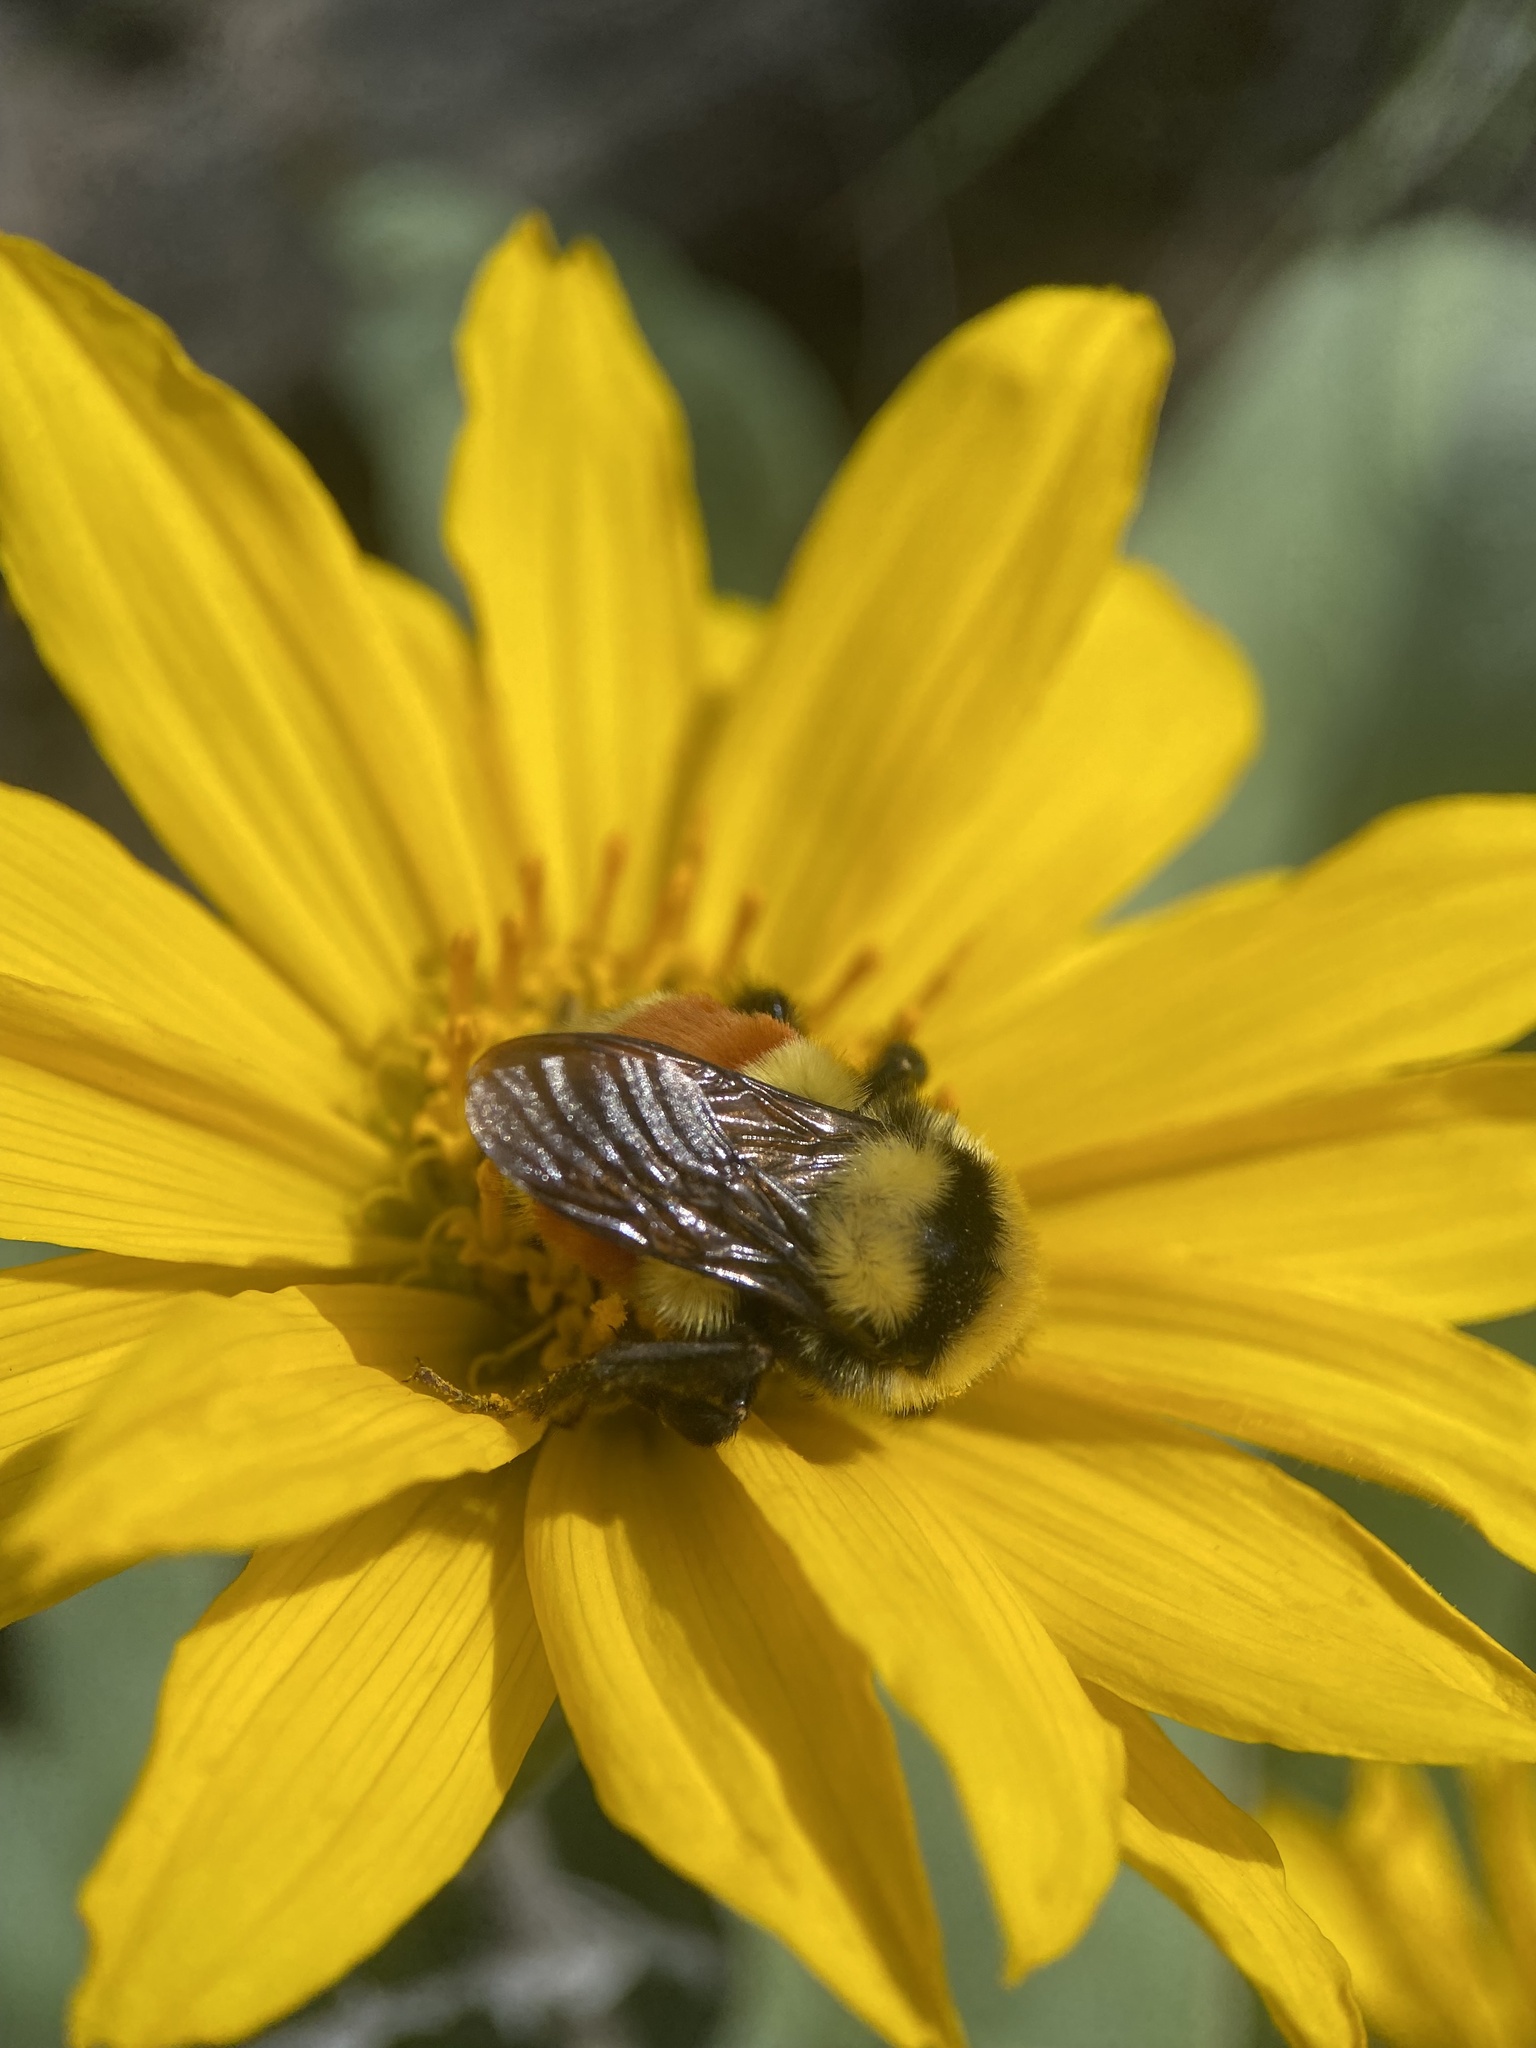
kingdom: Animalia
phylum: Arthropoda
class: Insecta
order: Hymenoptera
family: Apidae
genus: Bombus
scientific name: Bombus huntii
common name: Hunt bumble bee
